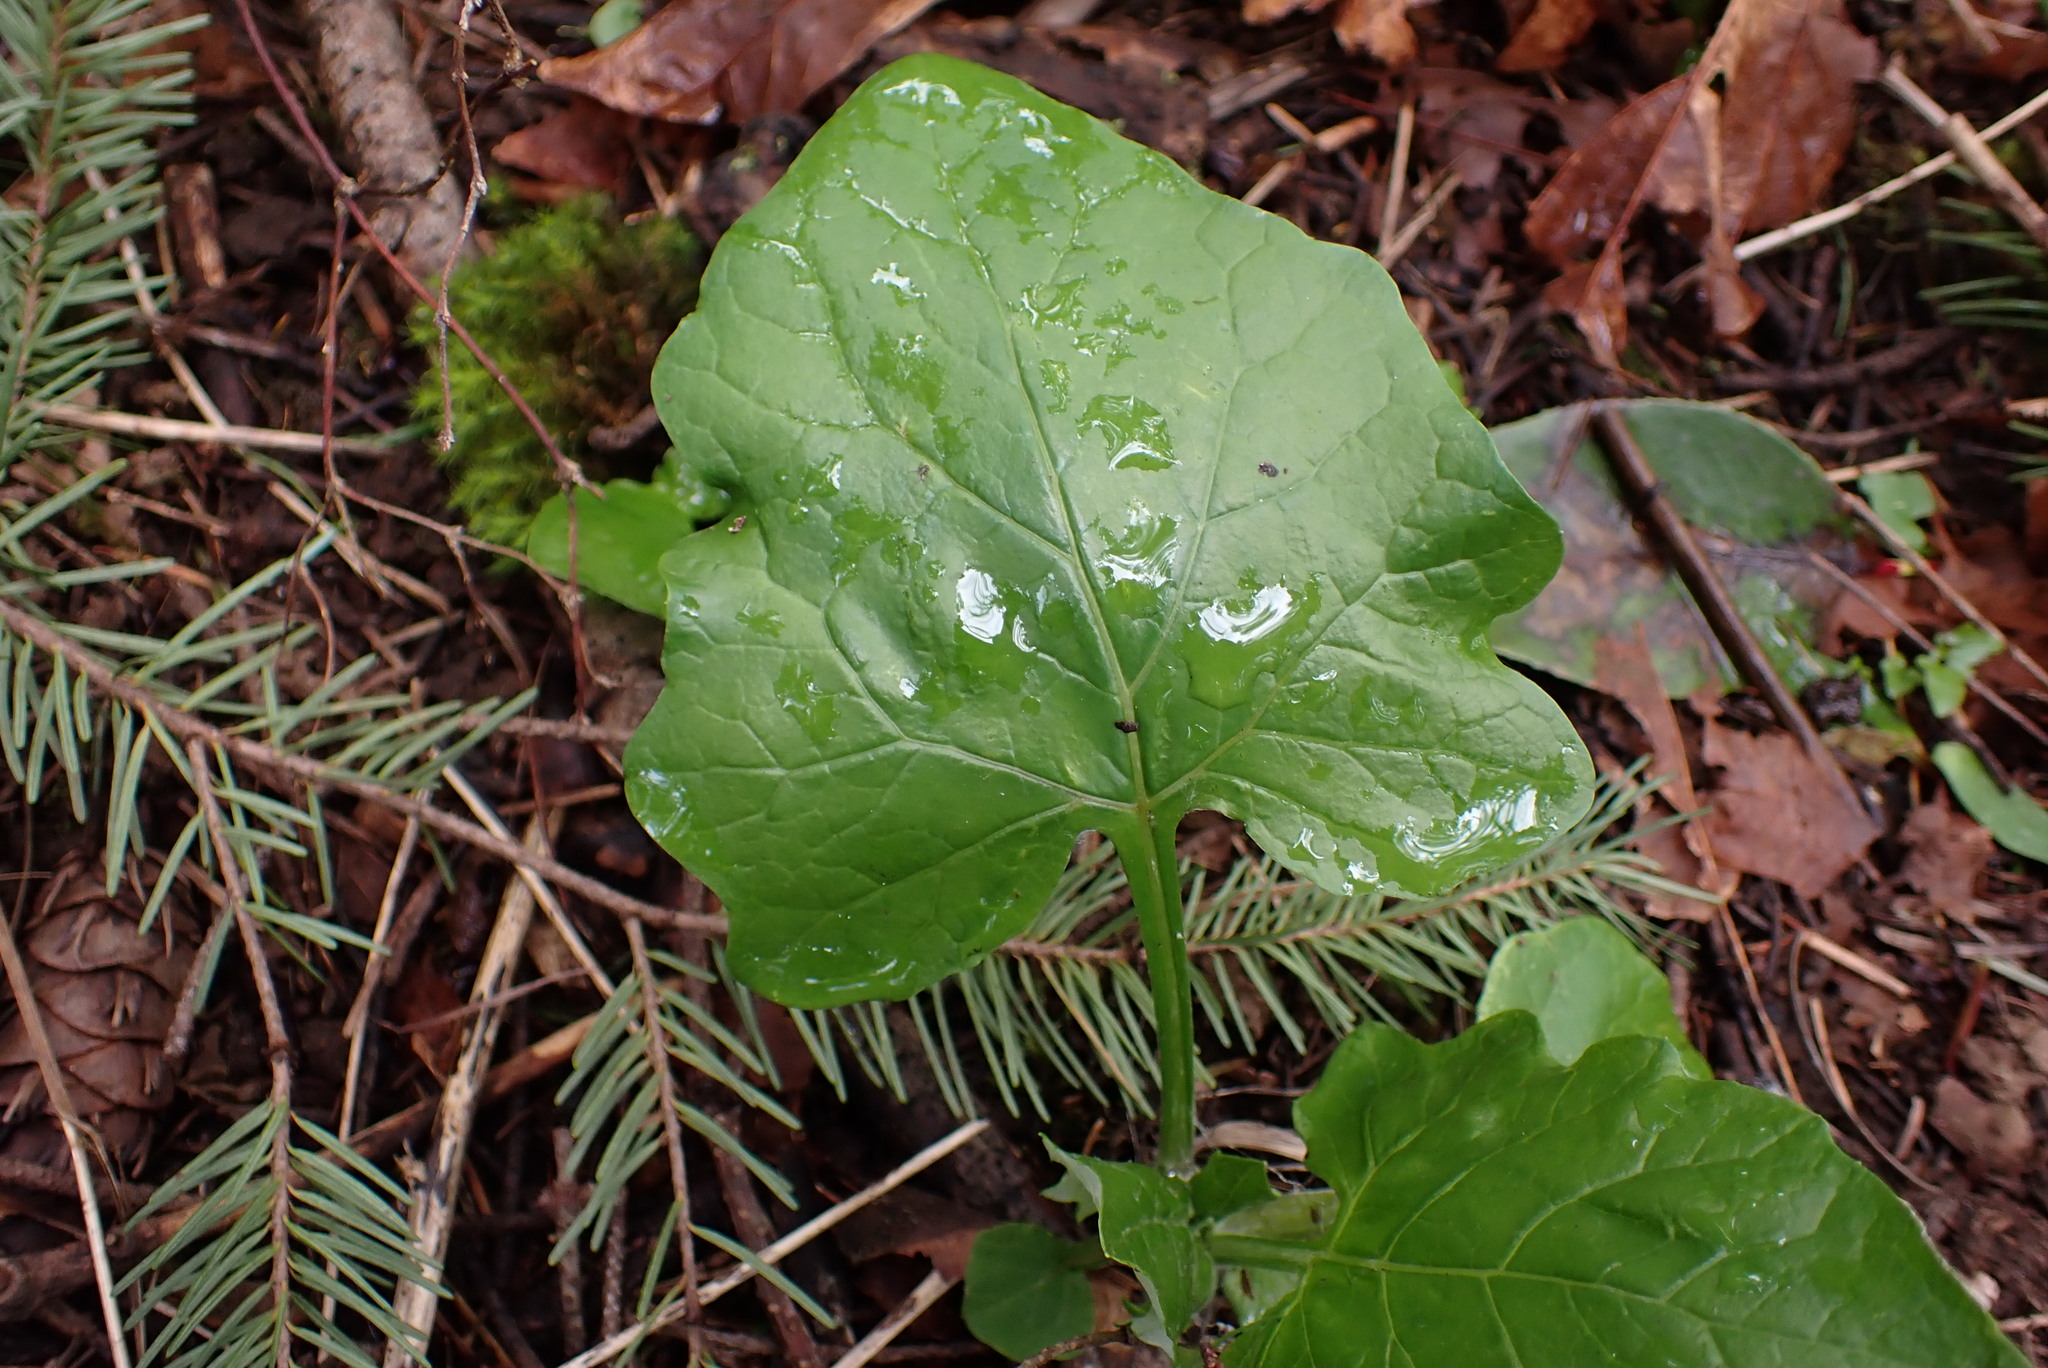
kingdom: Plantae
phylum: Tracheophyta
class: Magnoliopsida
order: Asterales
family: Asteraceae
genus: Adenocaulon
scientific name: Adenocaulon bicolor
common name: Trailplant
